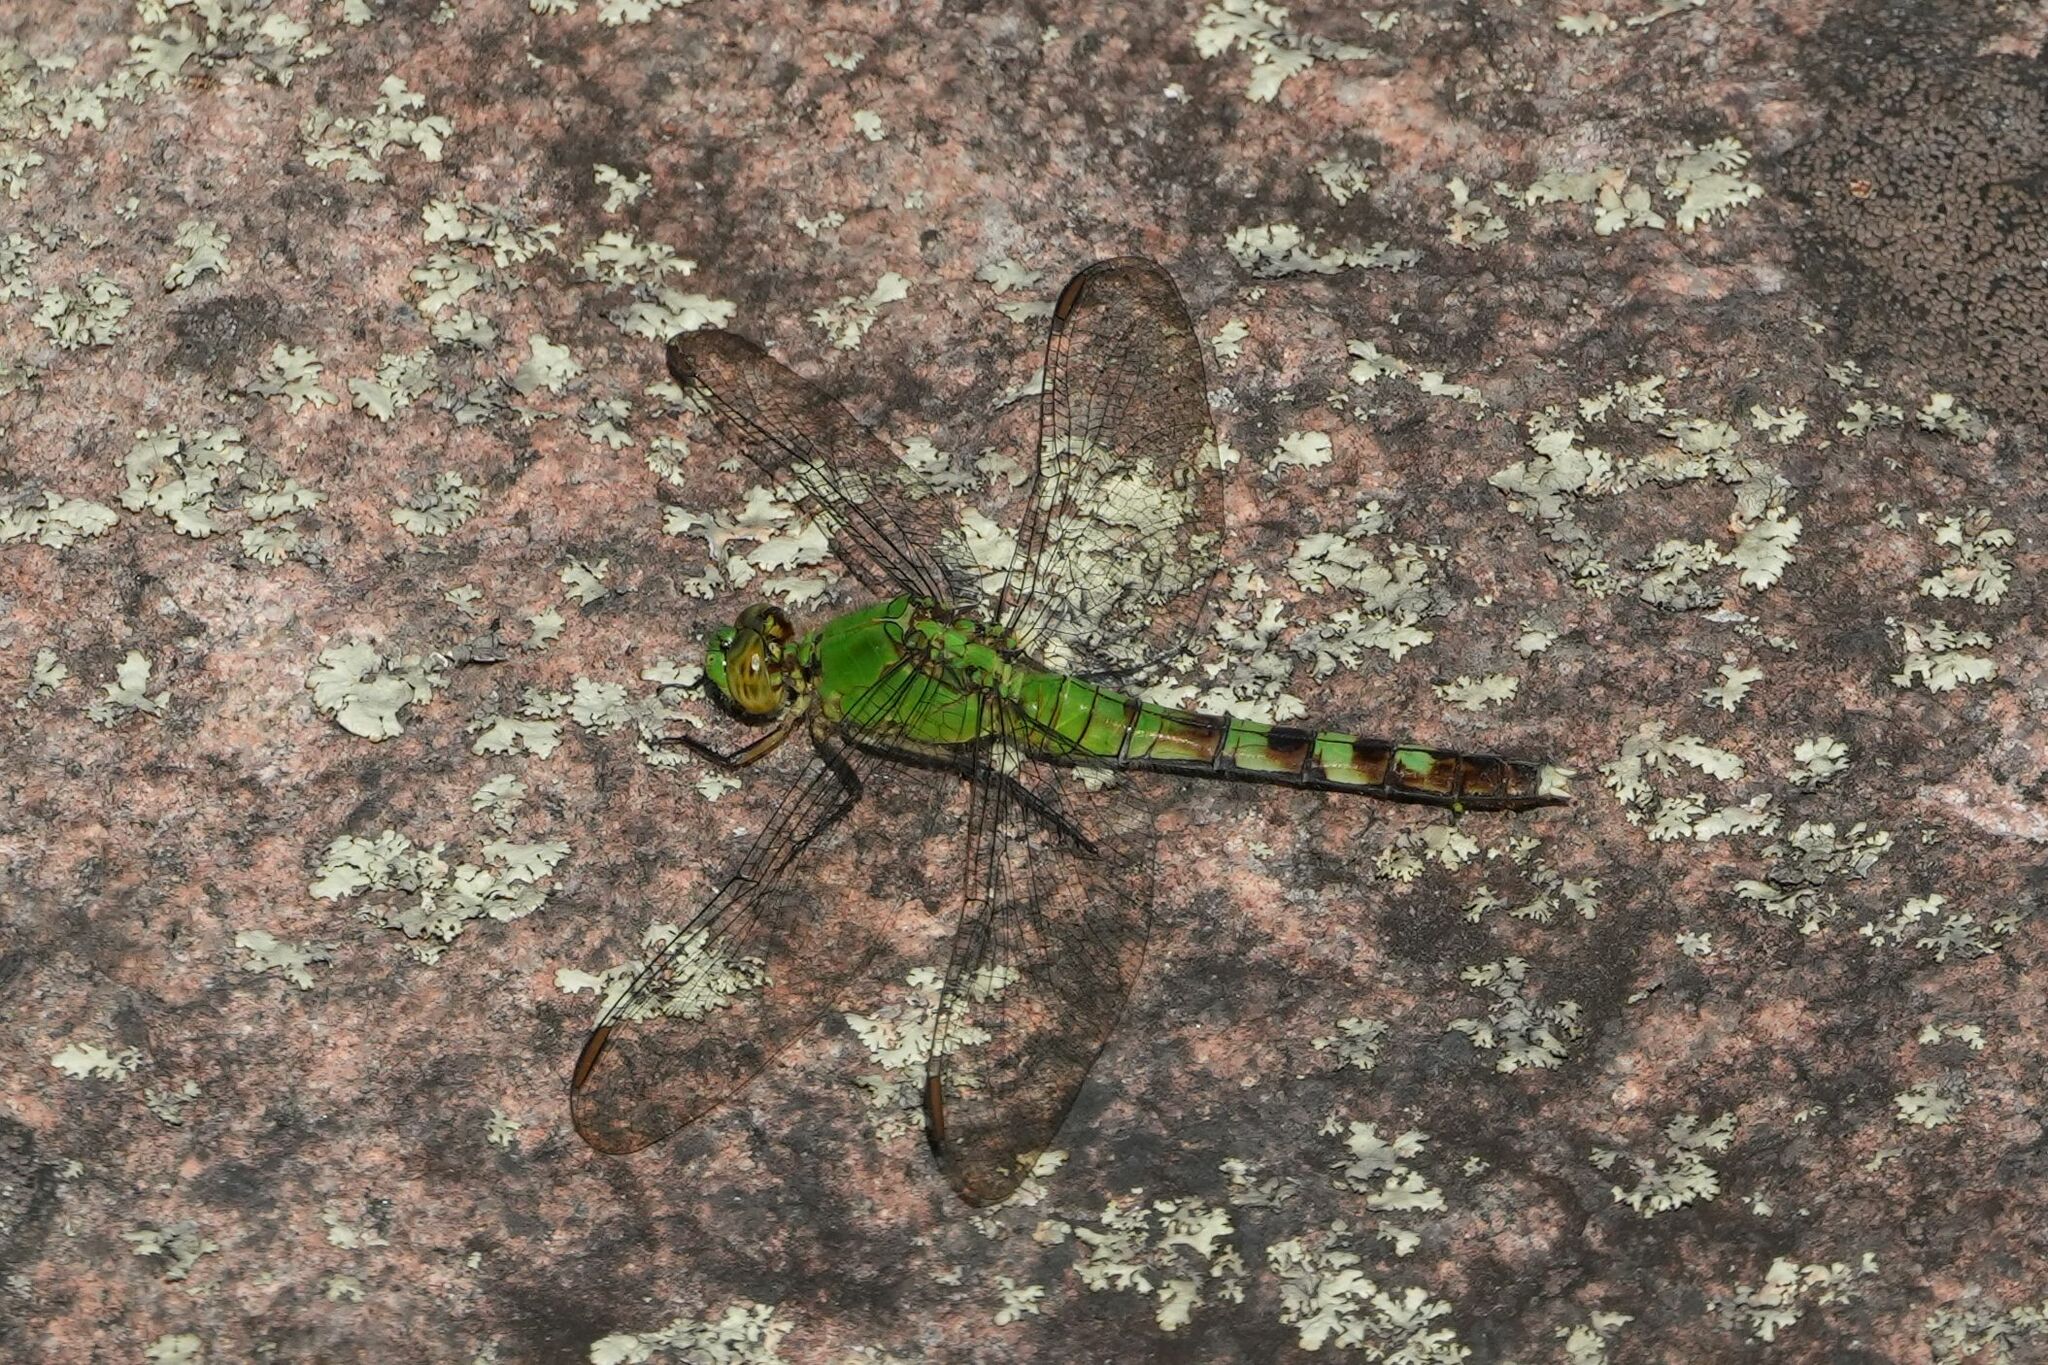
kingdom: Animalia
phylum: Arthropoda
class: Insecta
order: Odonata
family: Libellulidae
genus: Erythemis
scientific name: Erythemis simplicicollis
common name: Eastern pondhawk
